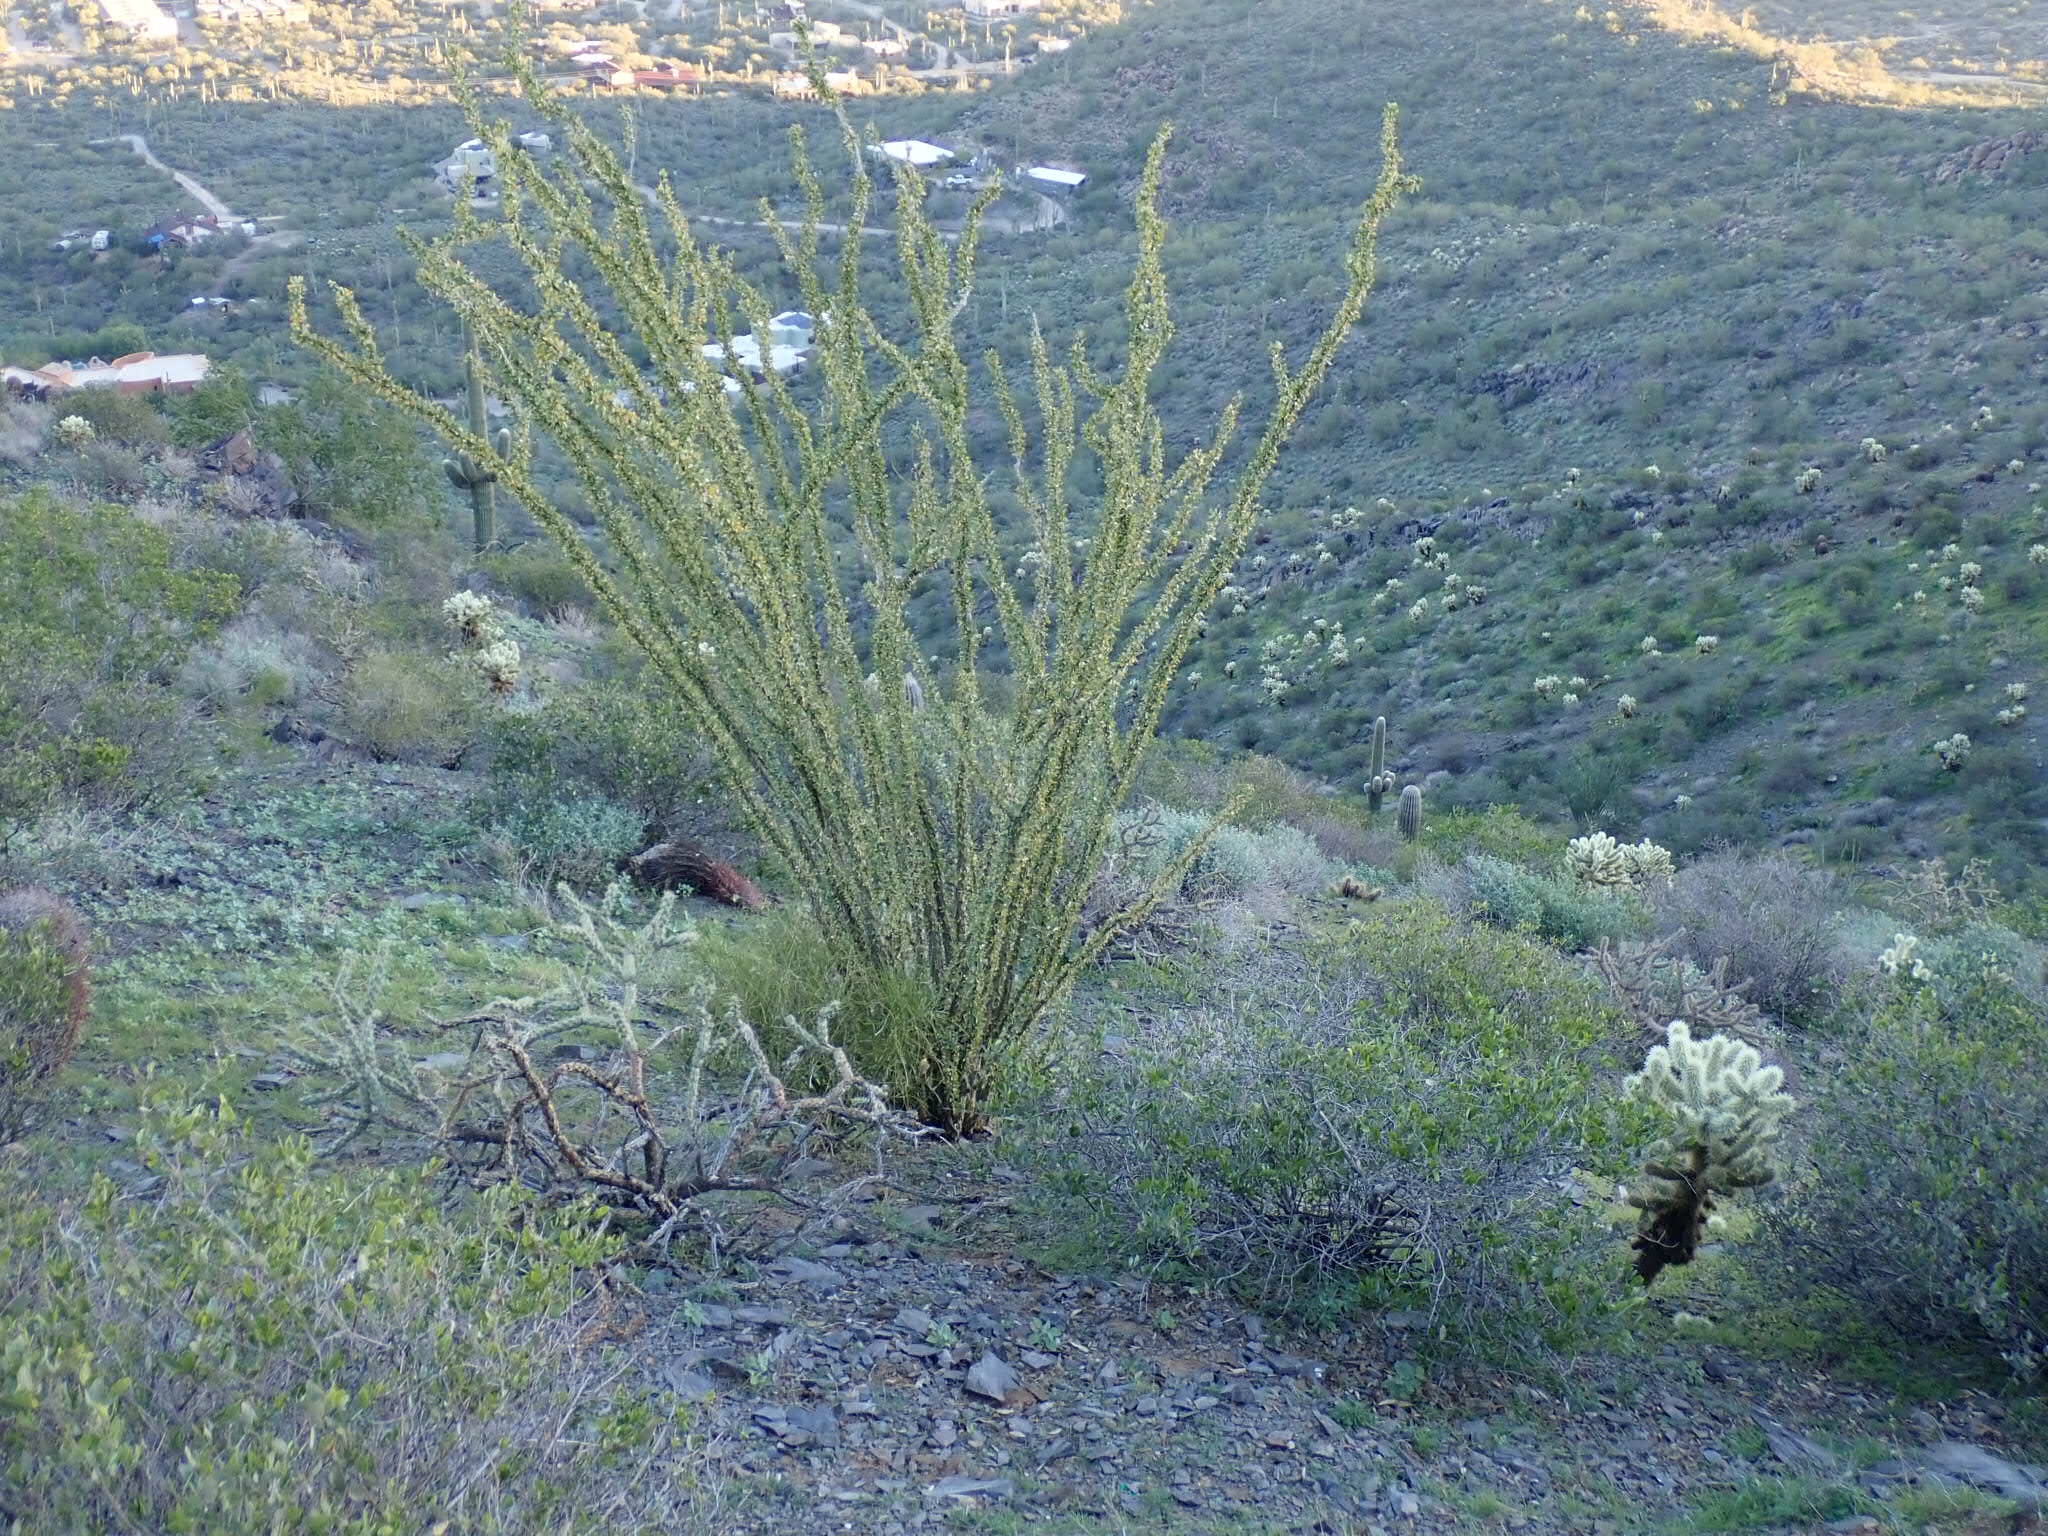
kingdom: Plantae
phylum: Tracheophyta
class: Magnoliopsida
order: Ericales
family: Fouquieriaceae
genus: Fouquieria
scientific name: Fouquieria splendens
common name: Vine-cactus
